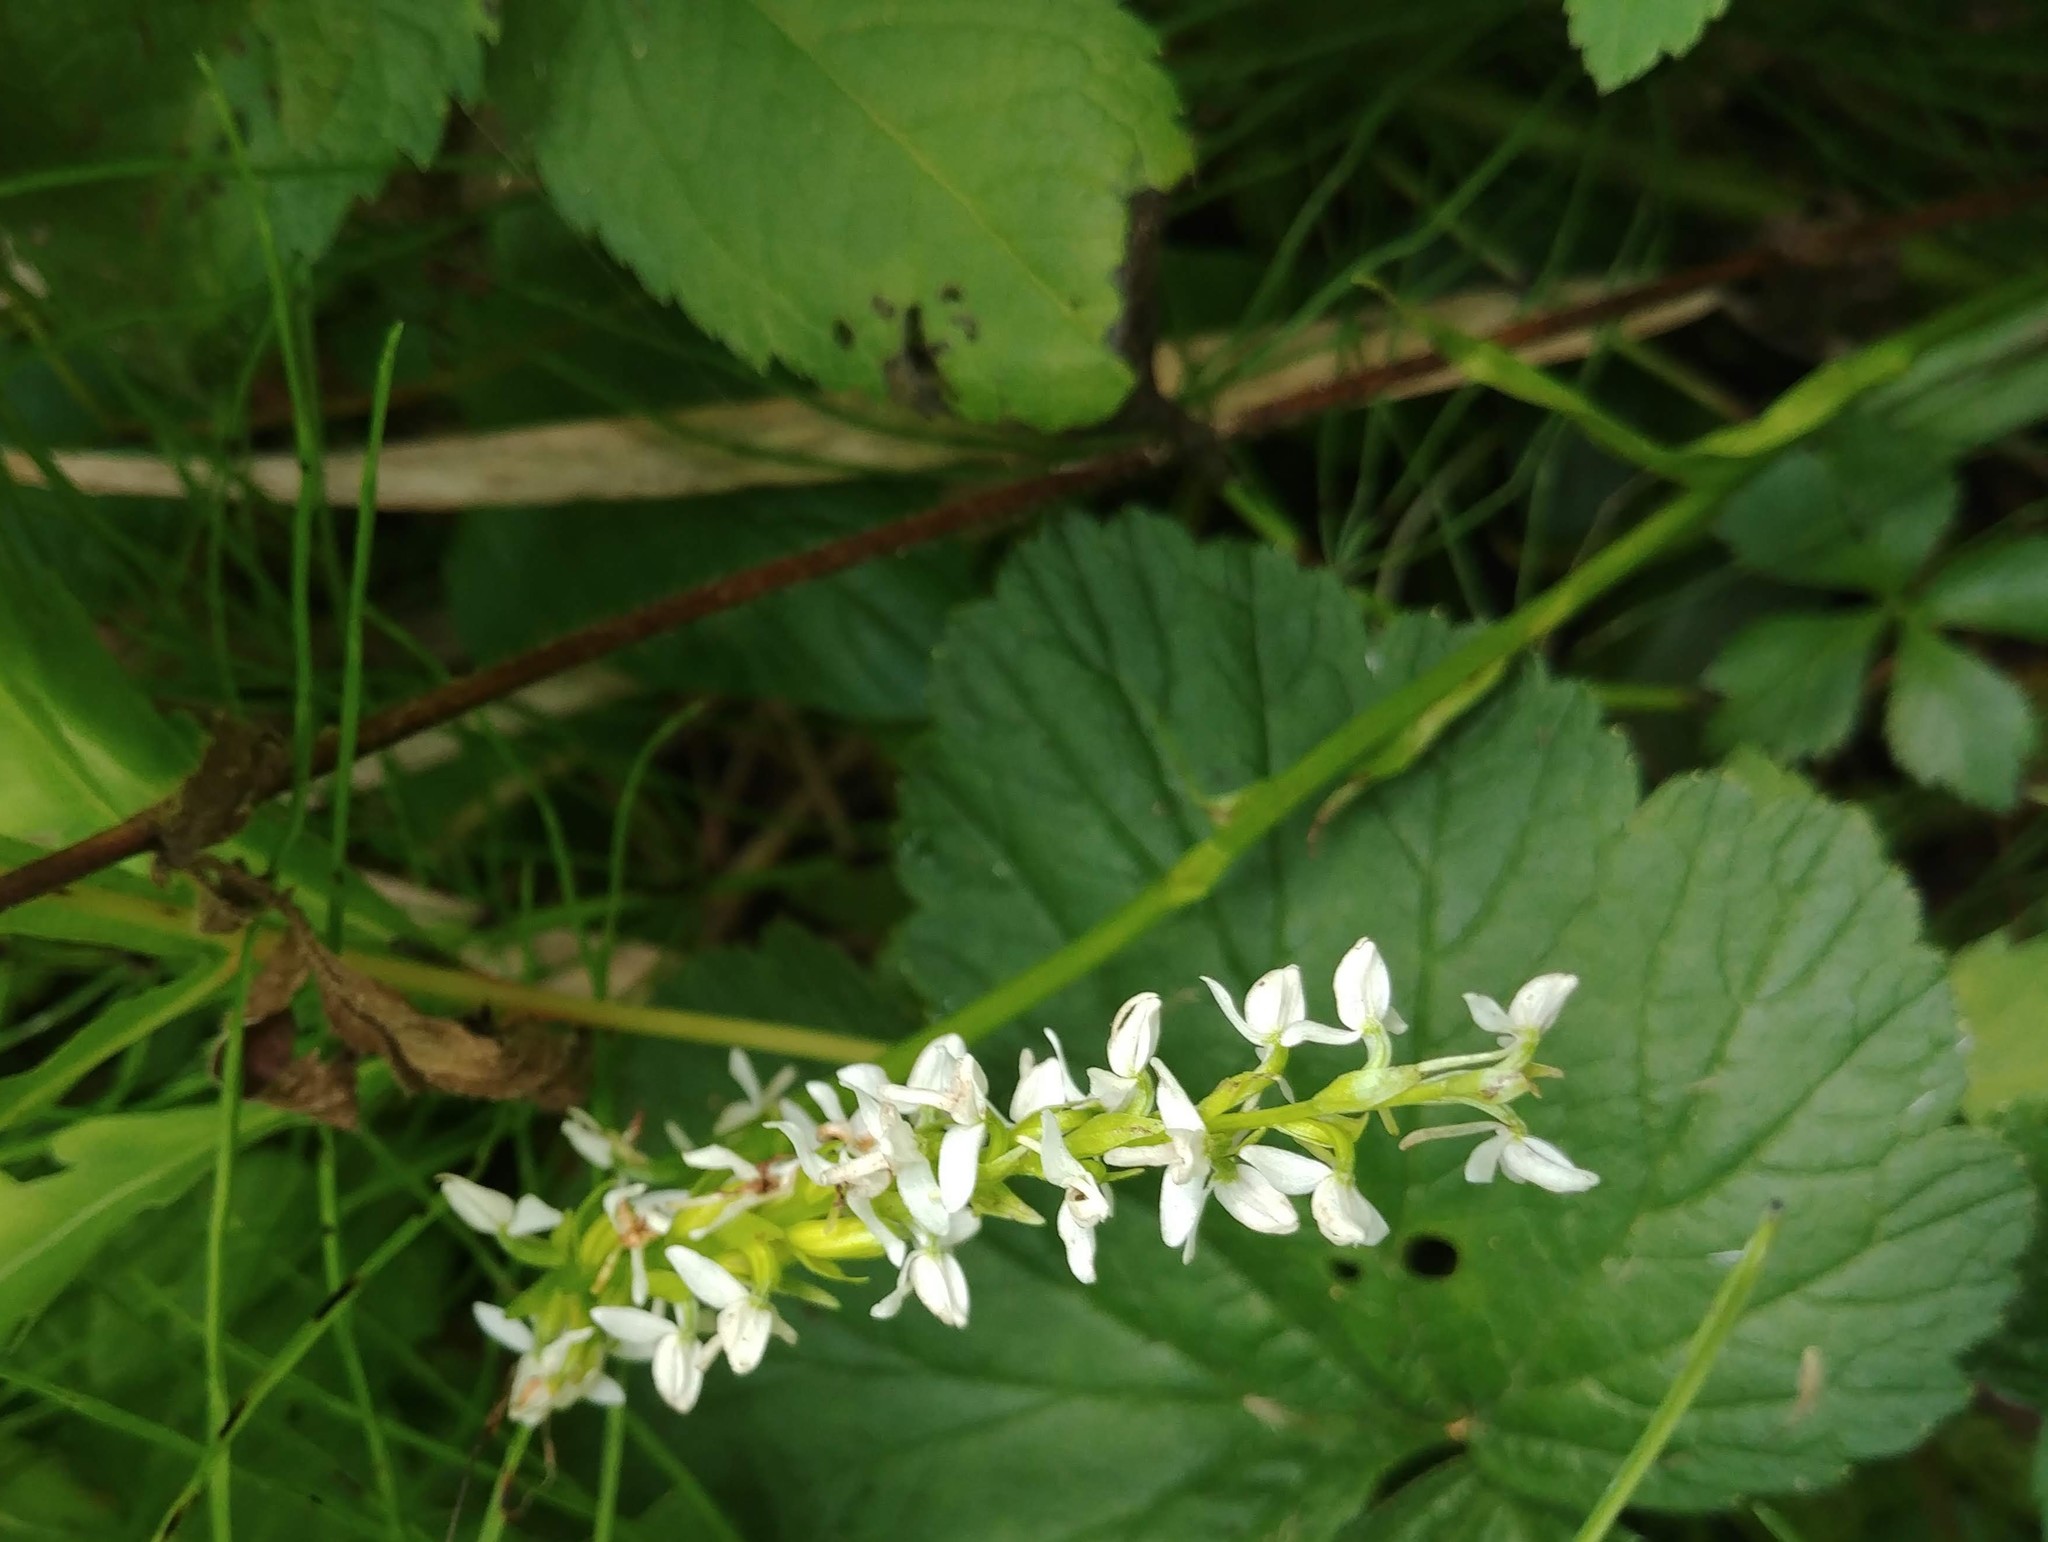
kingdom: Plantae
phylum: Tracheophyta
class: Liliopsida
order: Asparagales
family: Orchidaceae
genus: Platanthera
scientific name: Platanthera dilatata
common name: Bog candles
